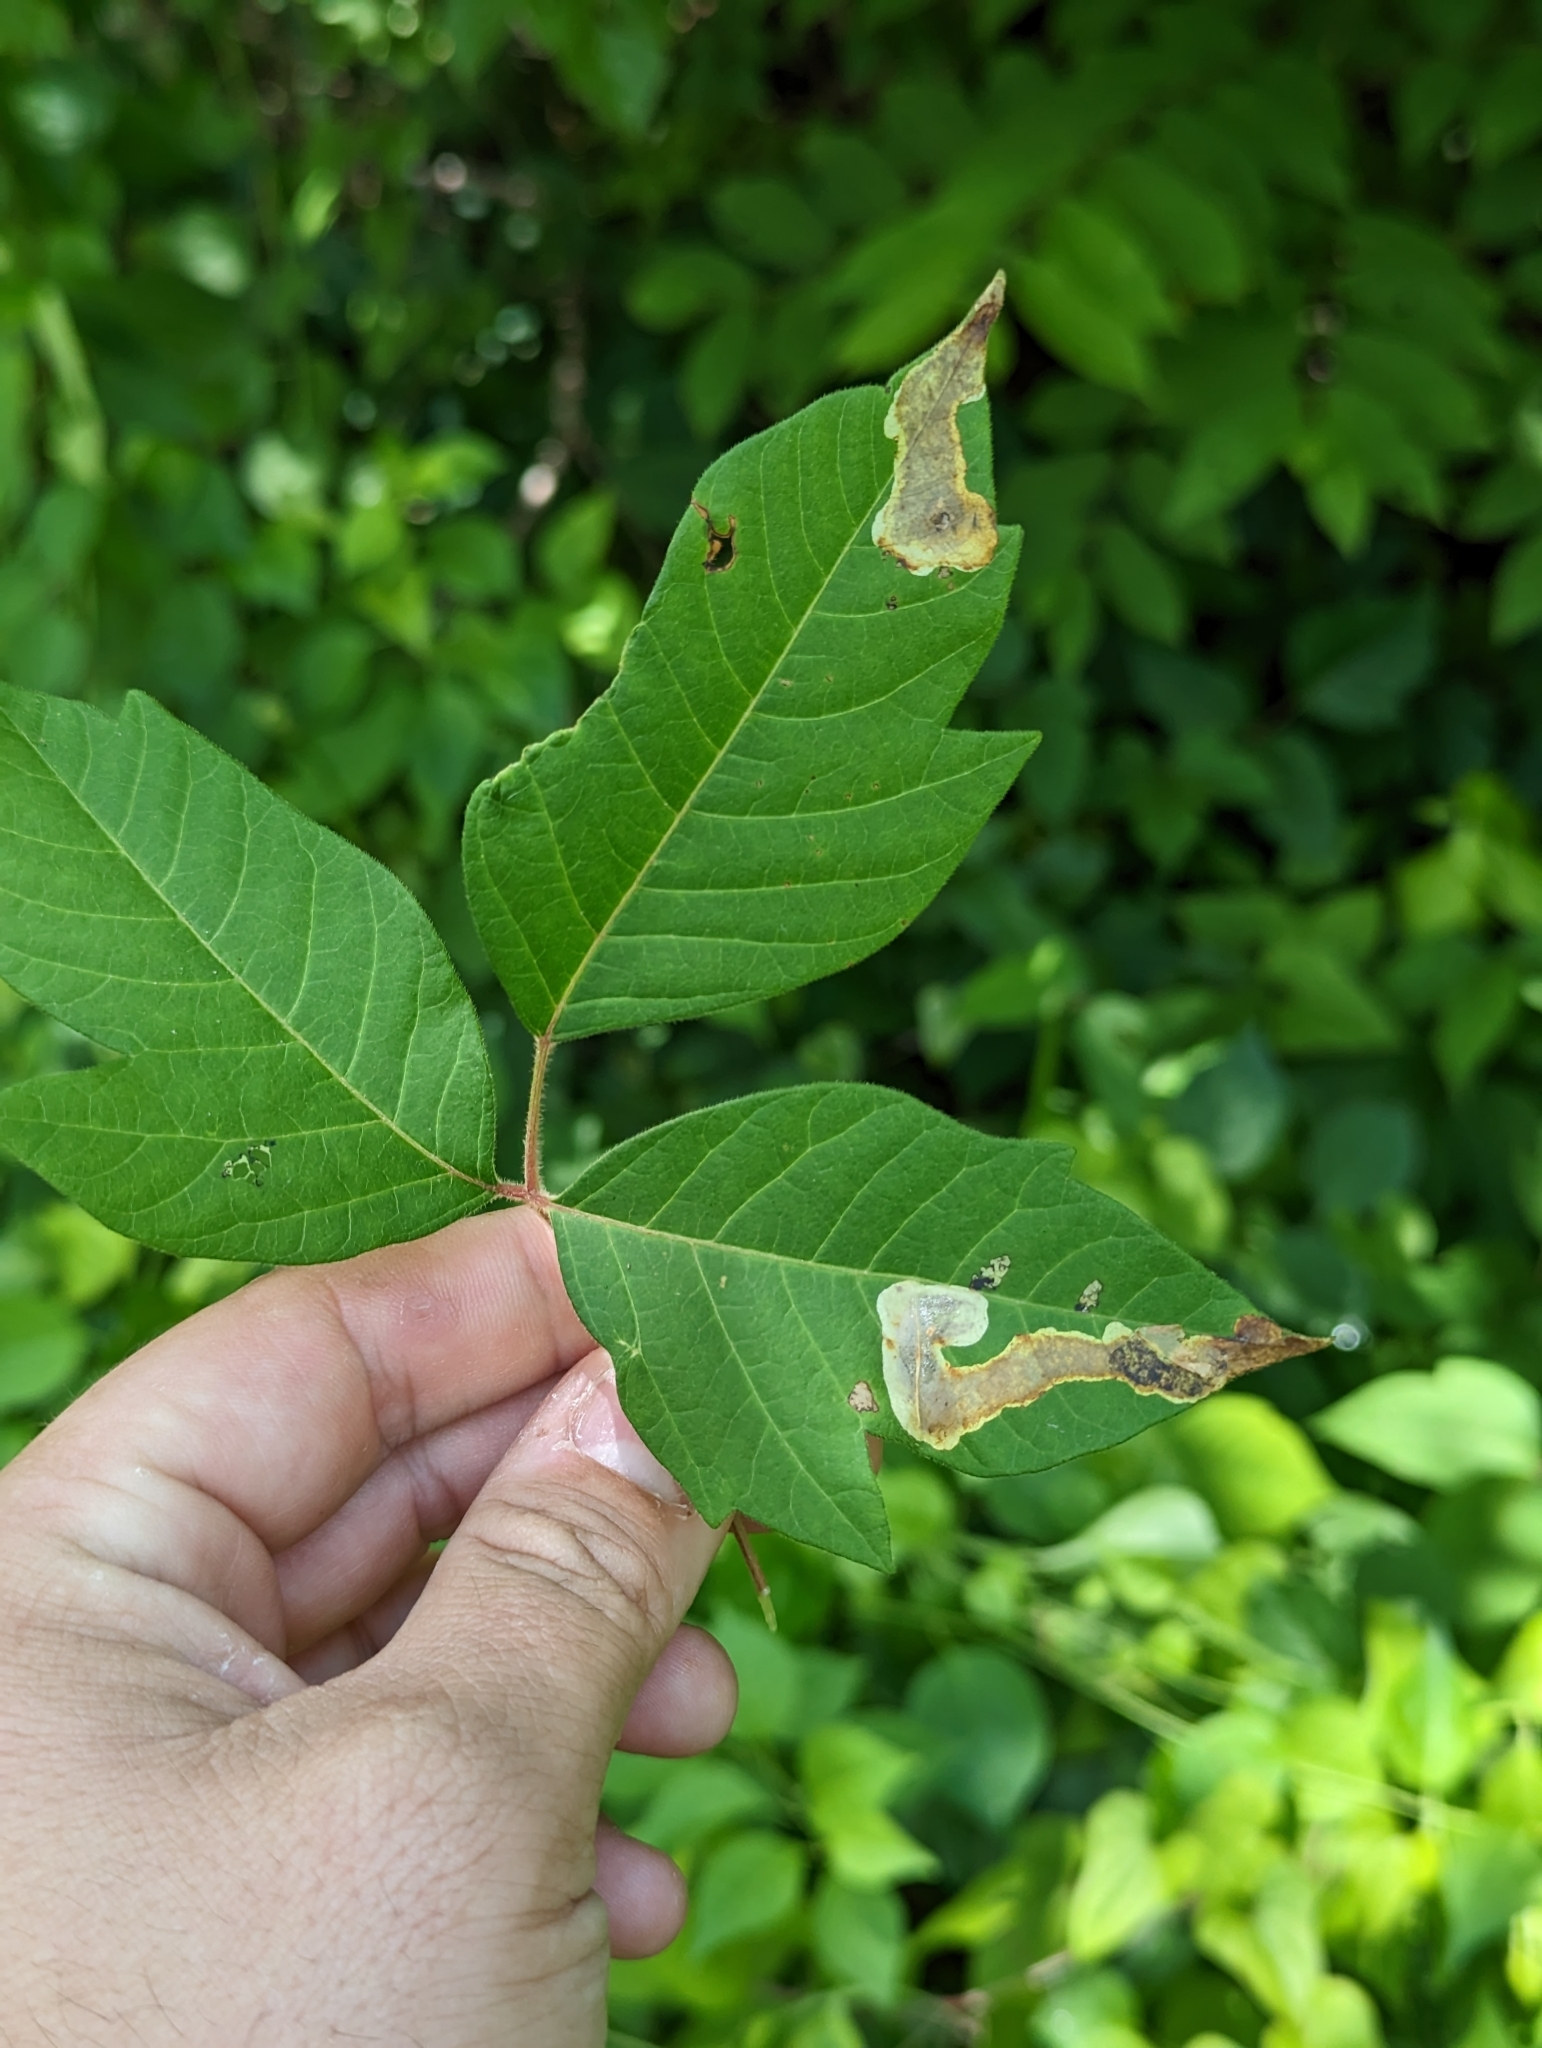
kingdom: Animalia
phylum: Arthropoda
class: Insecta
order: Lepidoptera
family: Gracillariidae
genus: Cameraria
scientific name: Cameraria guttifinitella
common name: Poison ivy leaf-miner moth
